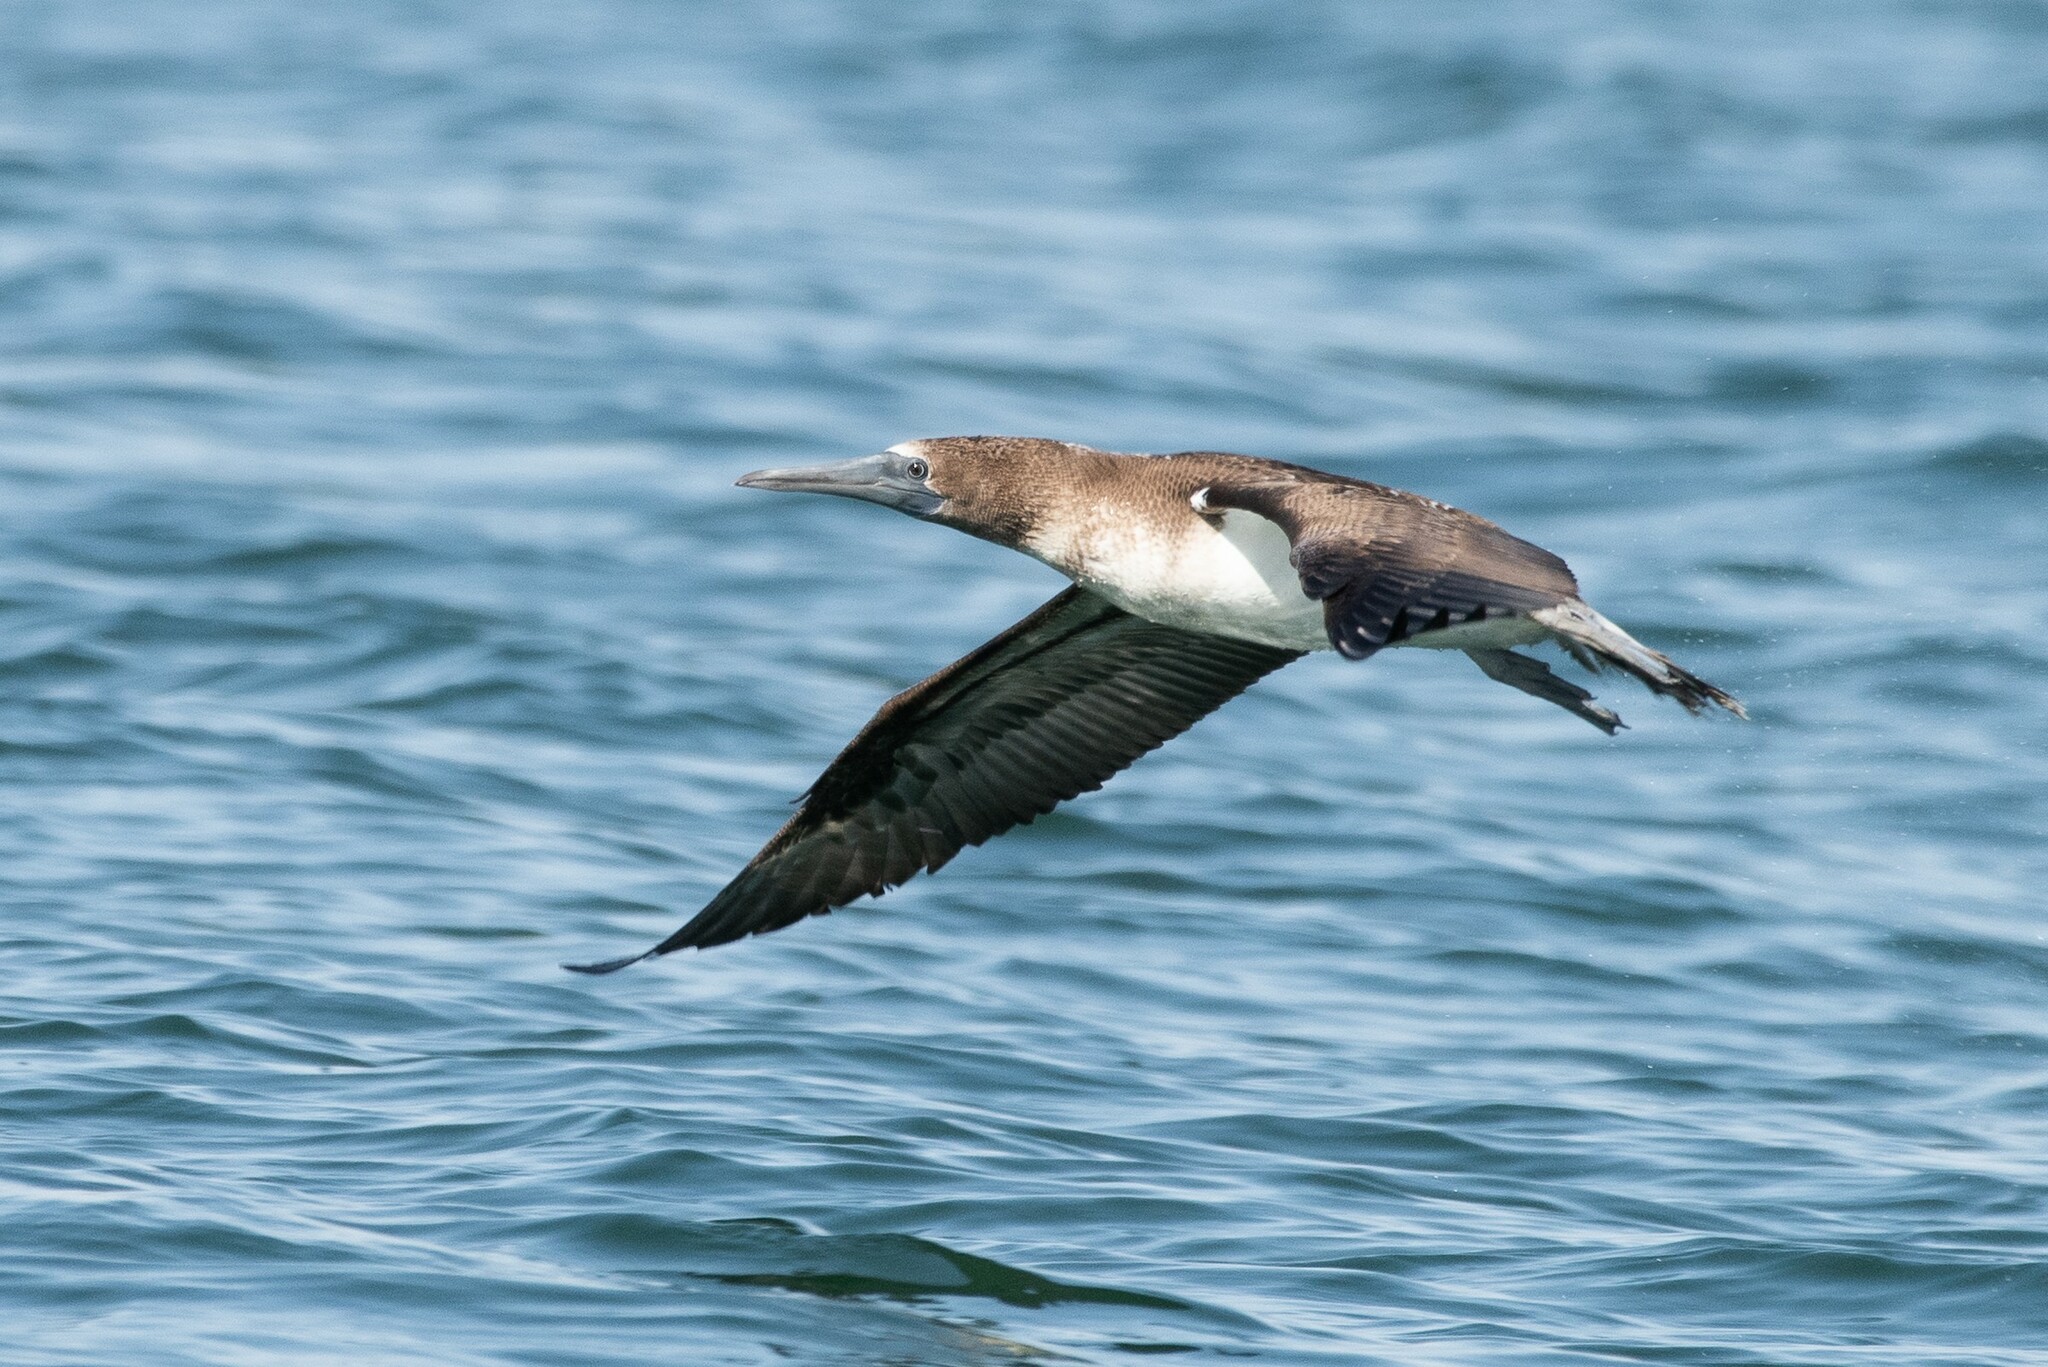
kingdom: Animalia
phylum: Chordata
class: Aves
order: Suliformes
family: Sulidae
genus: Sula
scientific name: Sula nebouxii
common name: Blue-footed booby
